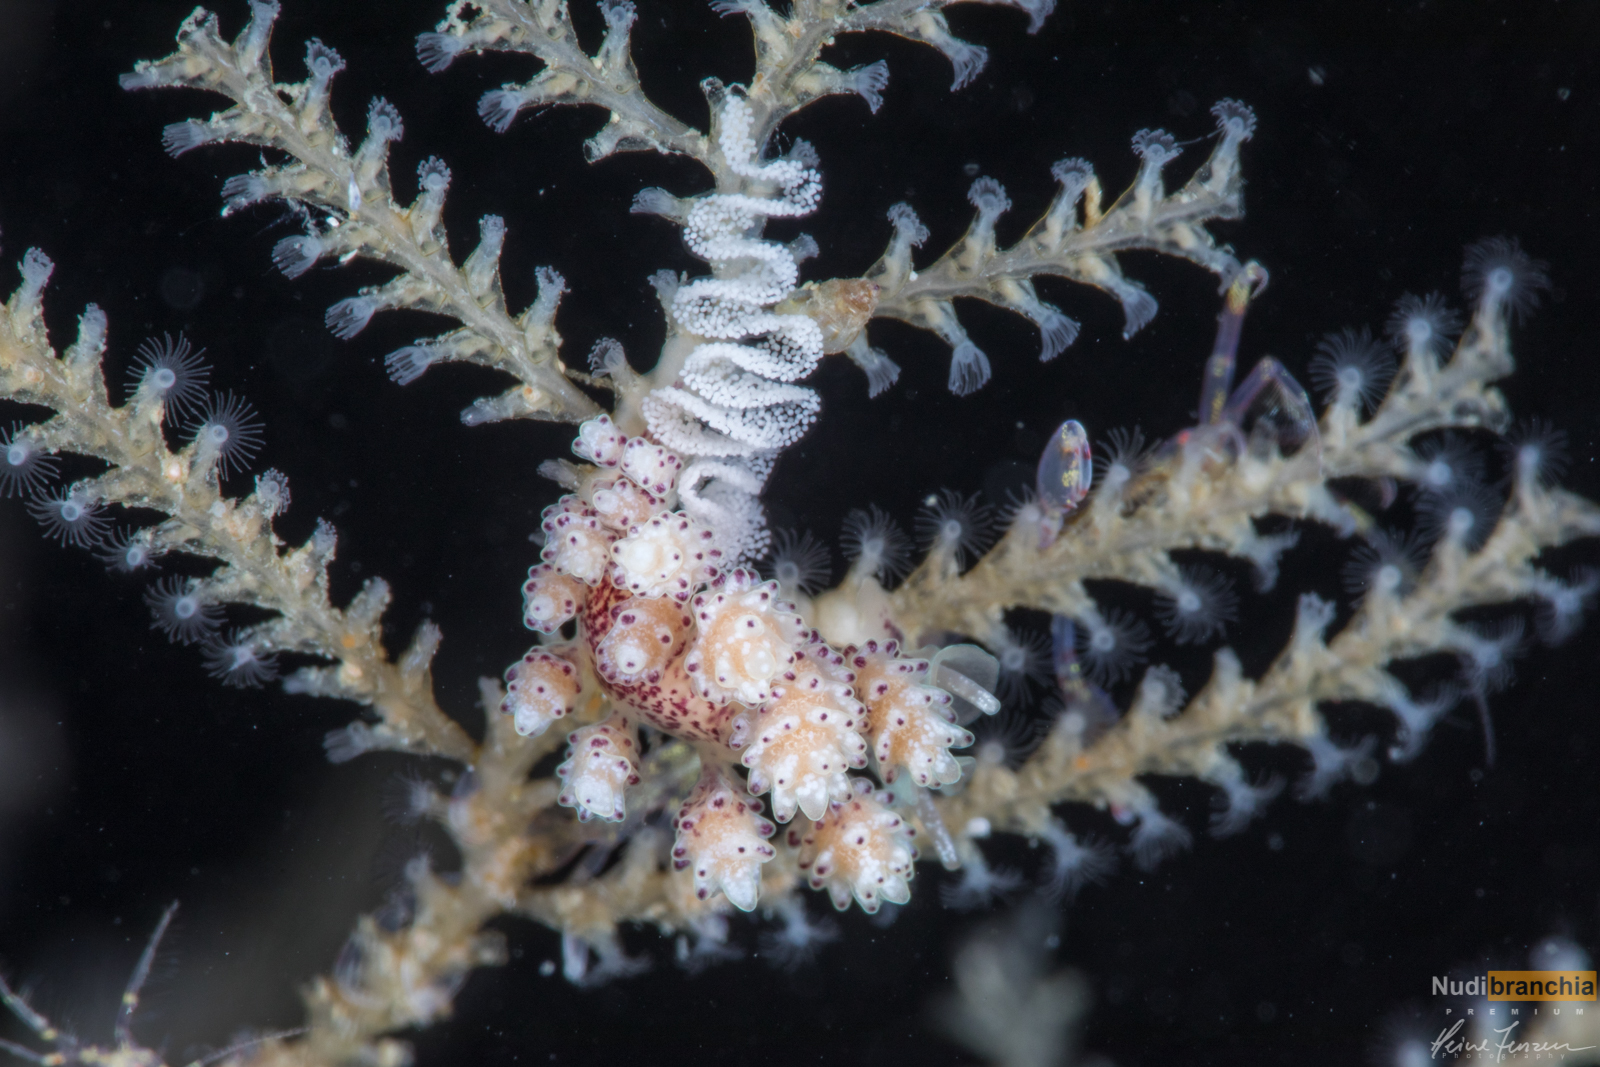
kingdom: Animalia
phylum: Mollusca
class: Gastropoda
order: Nudibranchia
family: Dotidae
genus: Doto
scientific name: Doto dunnei
